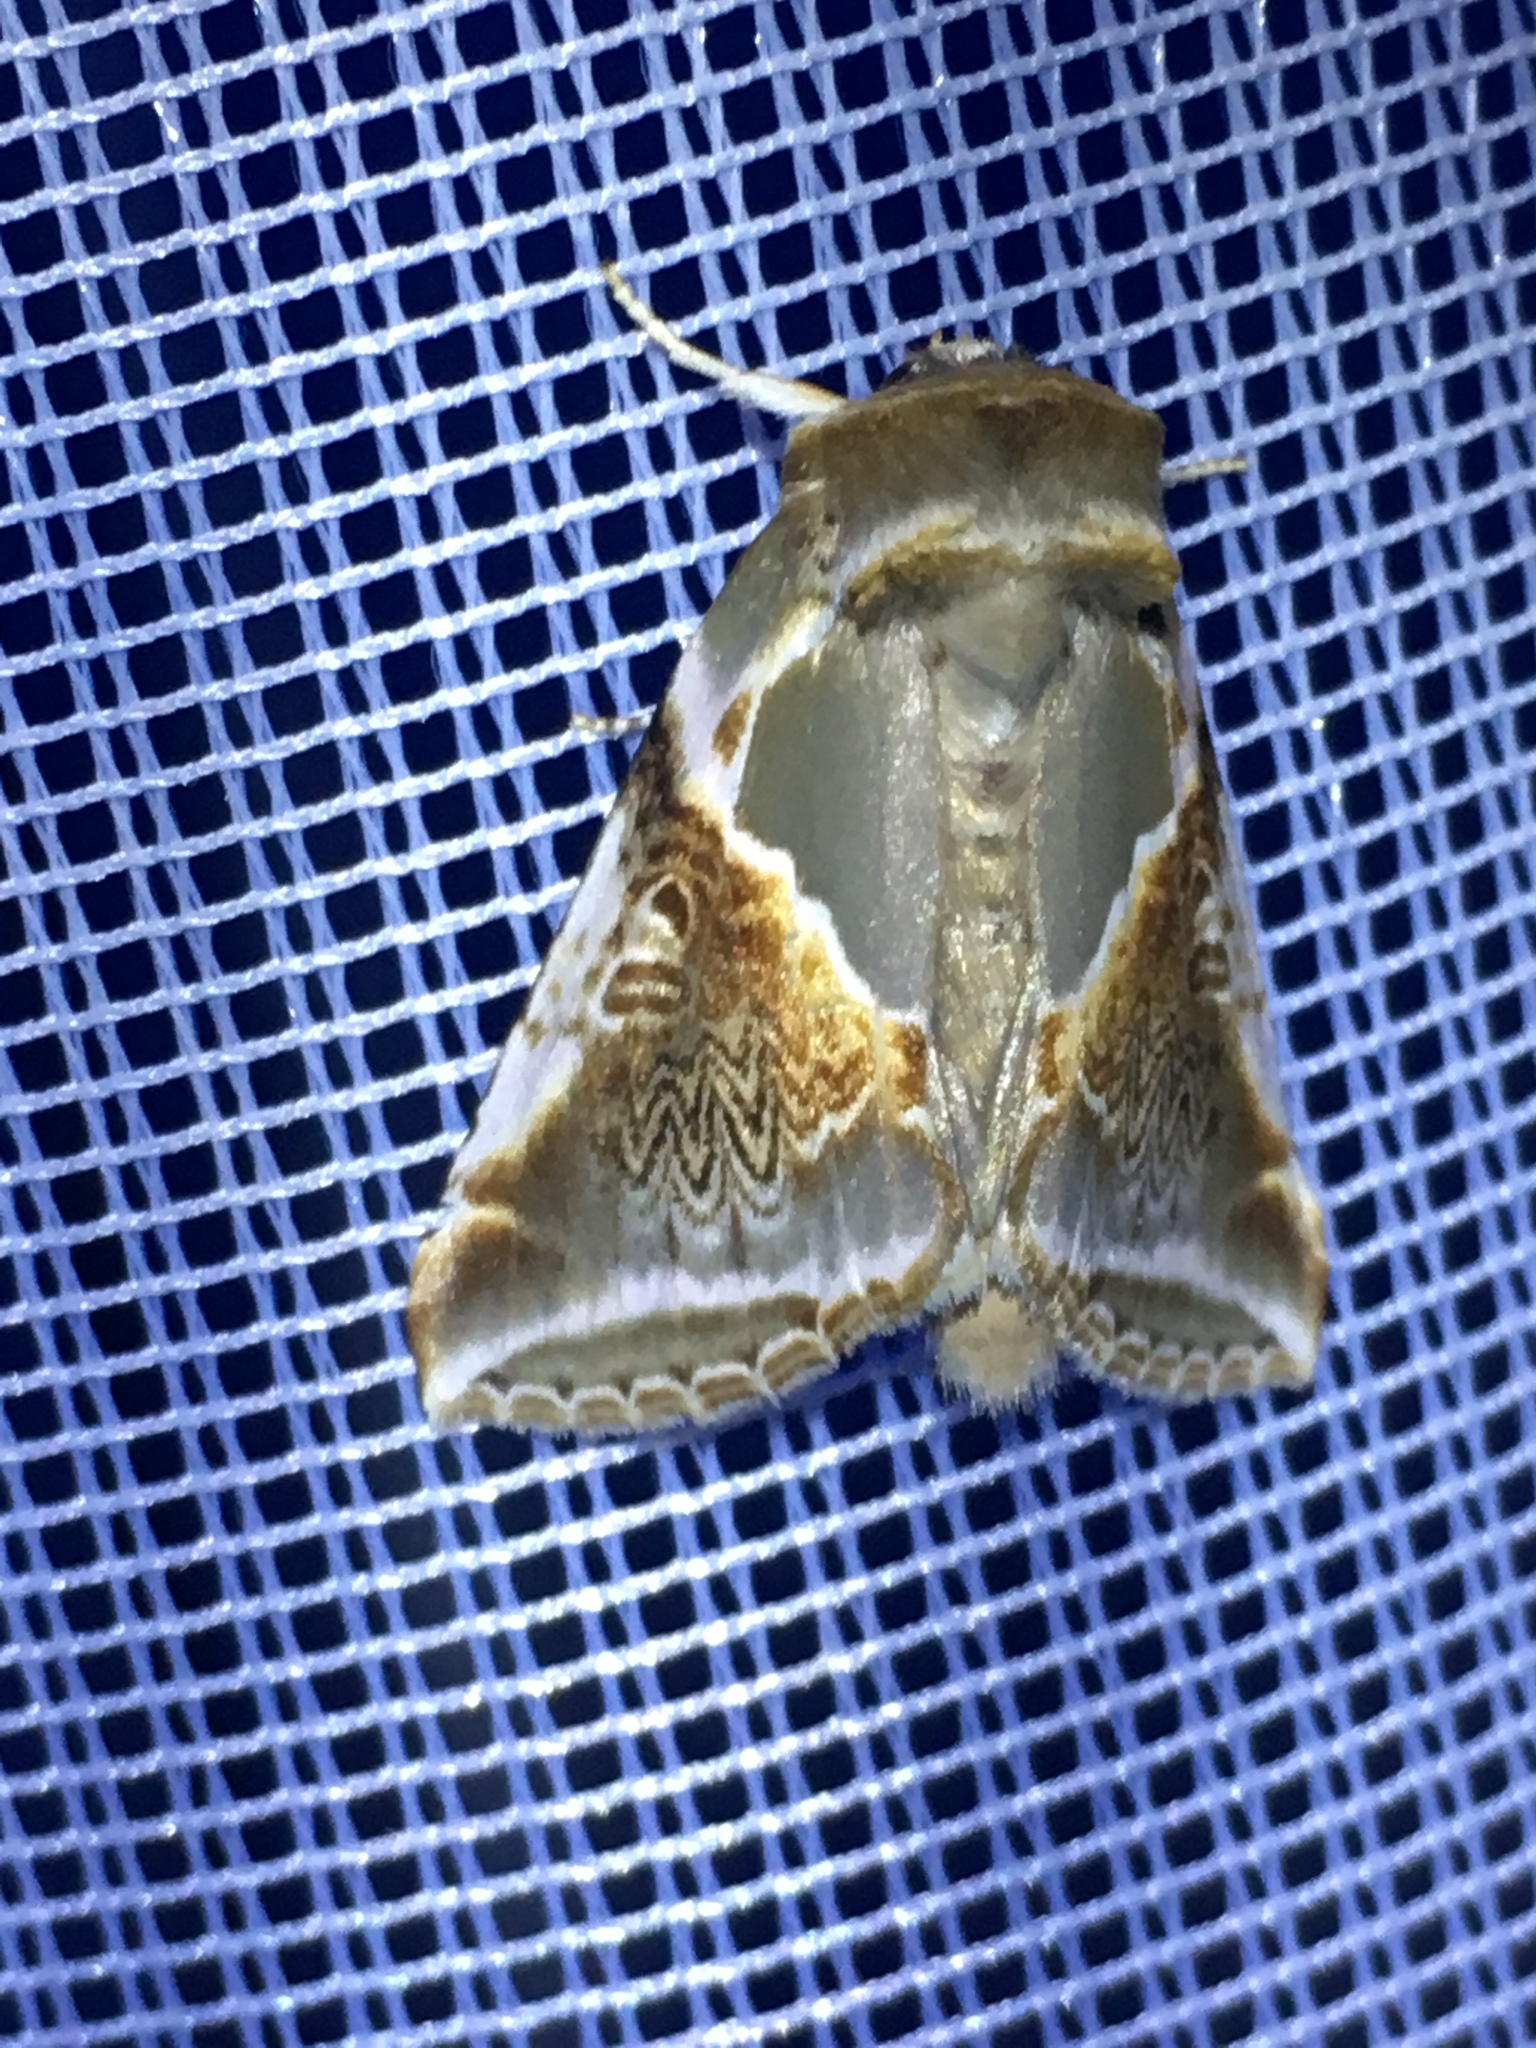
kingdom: Animalia
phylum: Arthropoda
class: Insecta
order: Lepidoptera
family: Drepanidae
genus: Habrosyne
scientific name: Habrosyne pyritoides
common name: Buff arches
